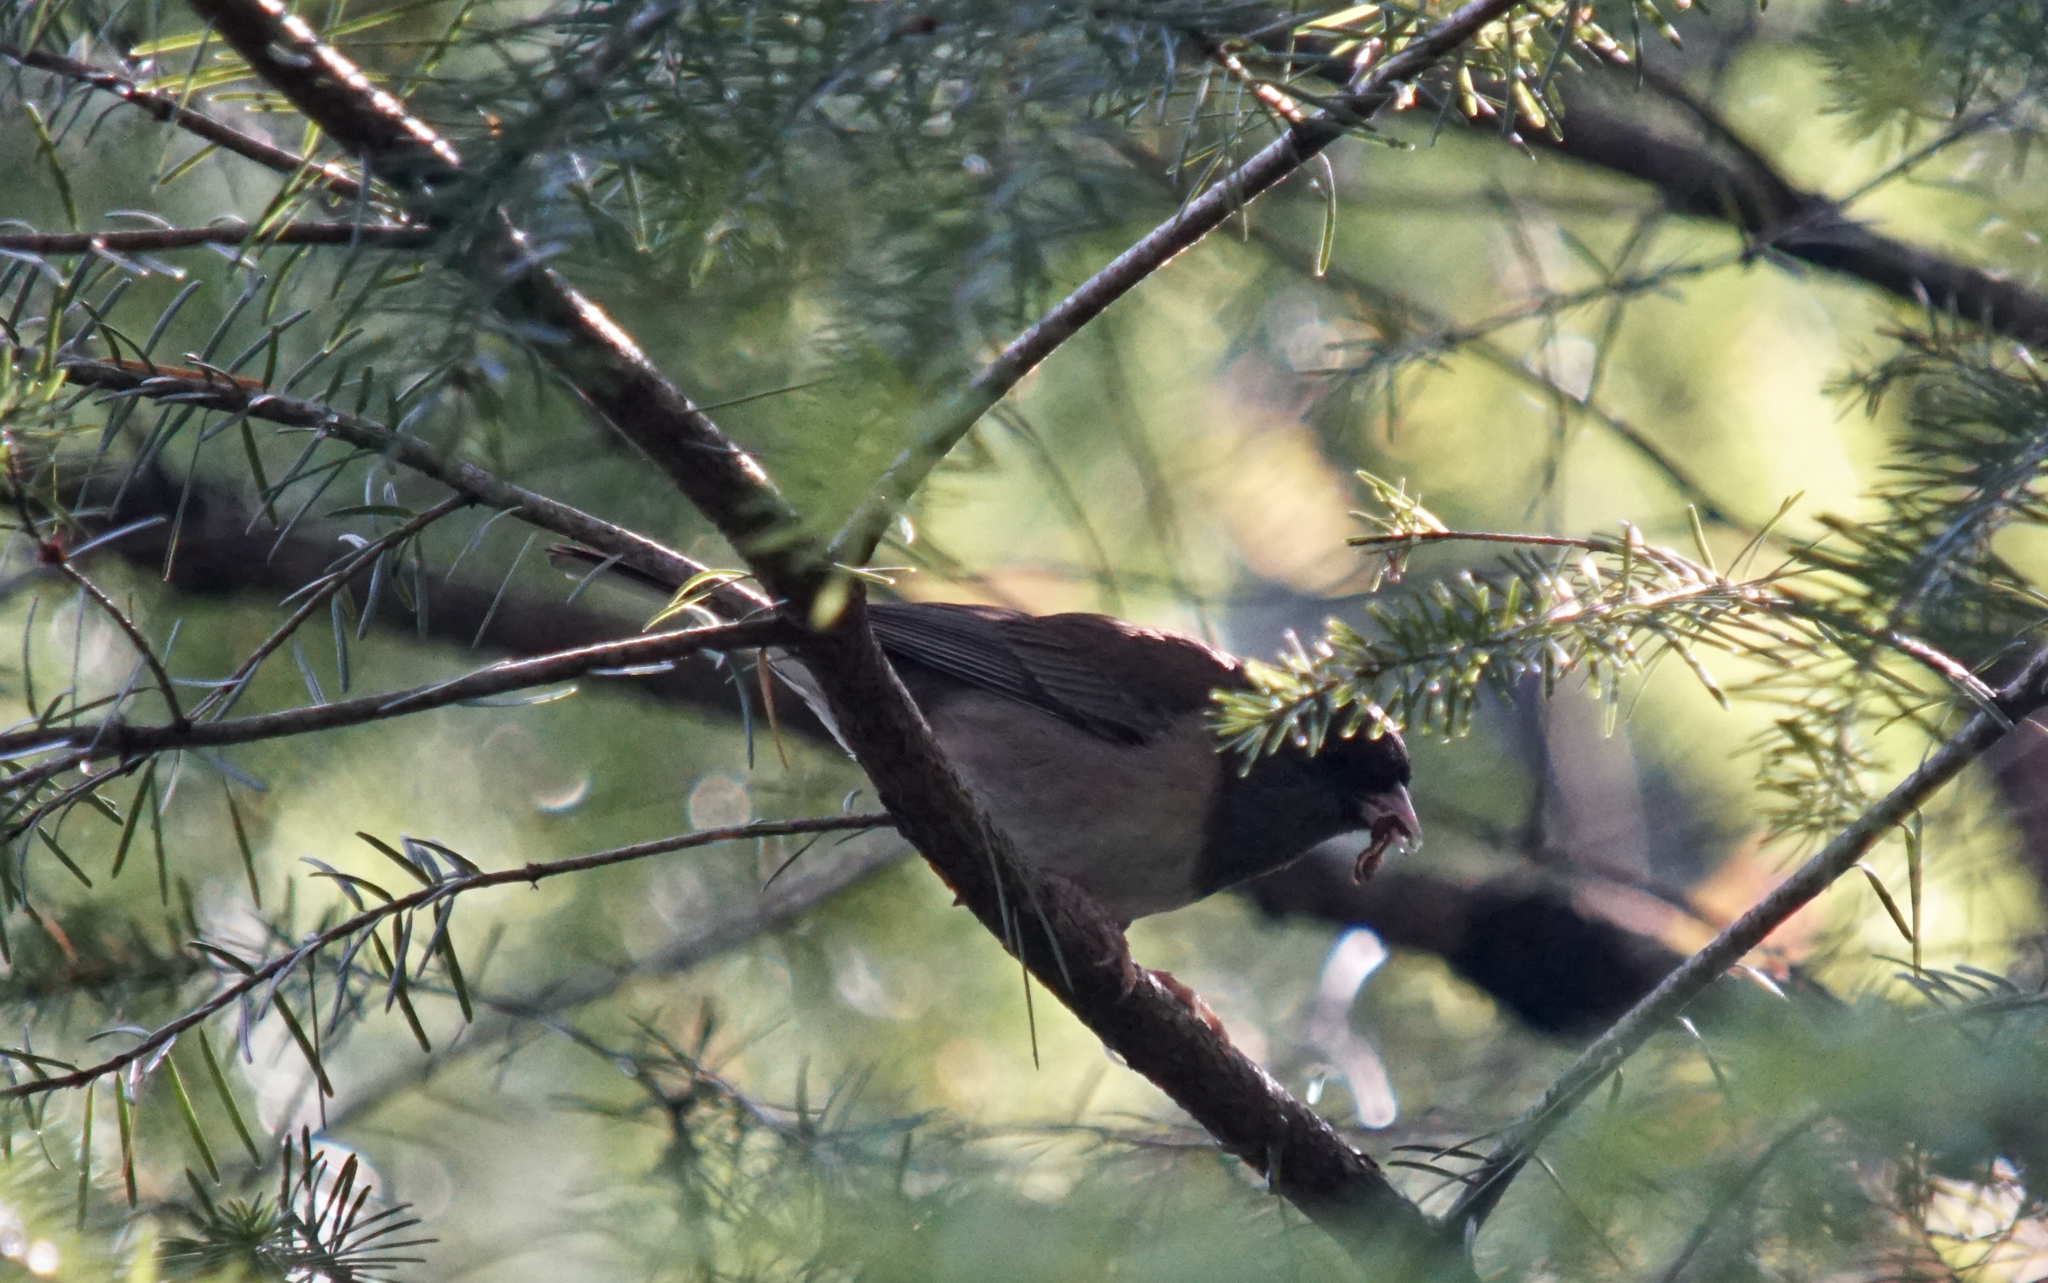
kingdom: Animalia
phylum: Chordata
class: Aves
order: Passeriformes
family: Passerellidae
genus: Junco
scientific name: Junco hyemalis
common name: Dark-eyed junco
